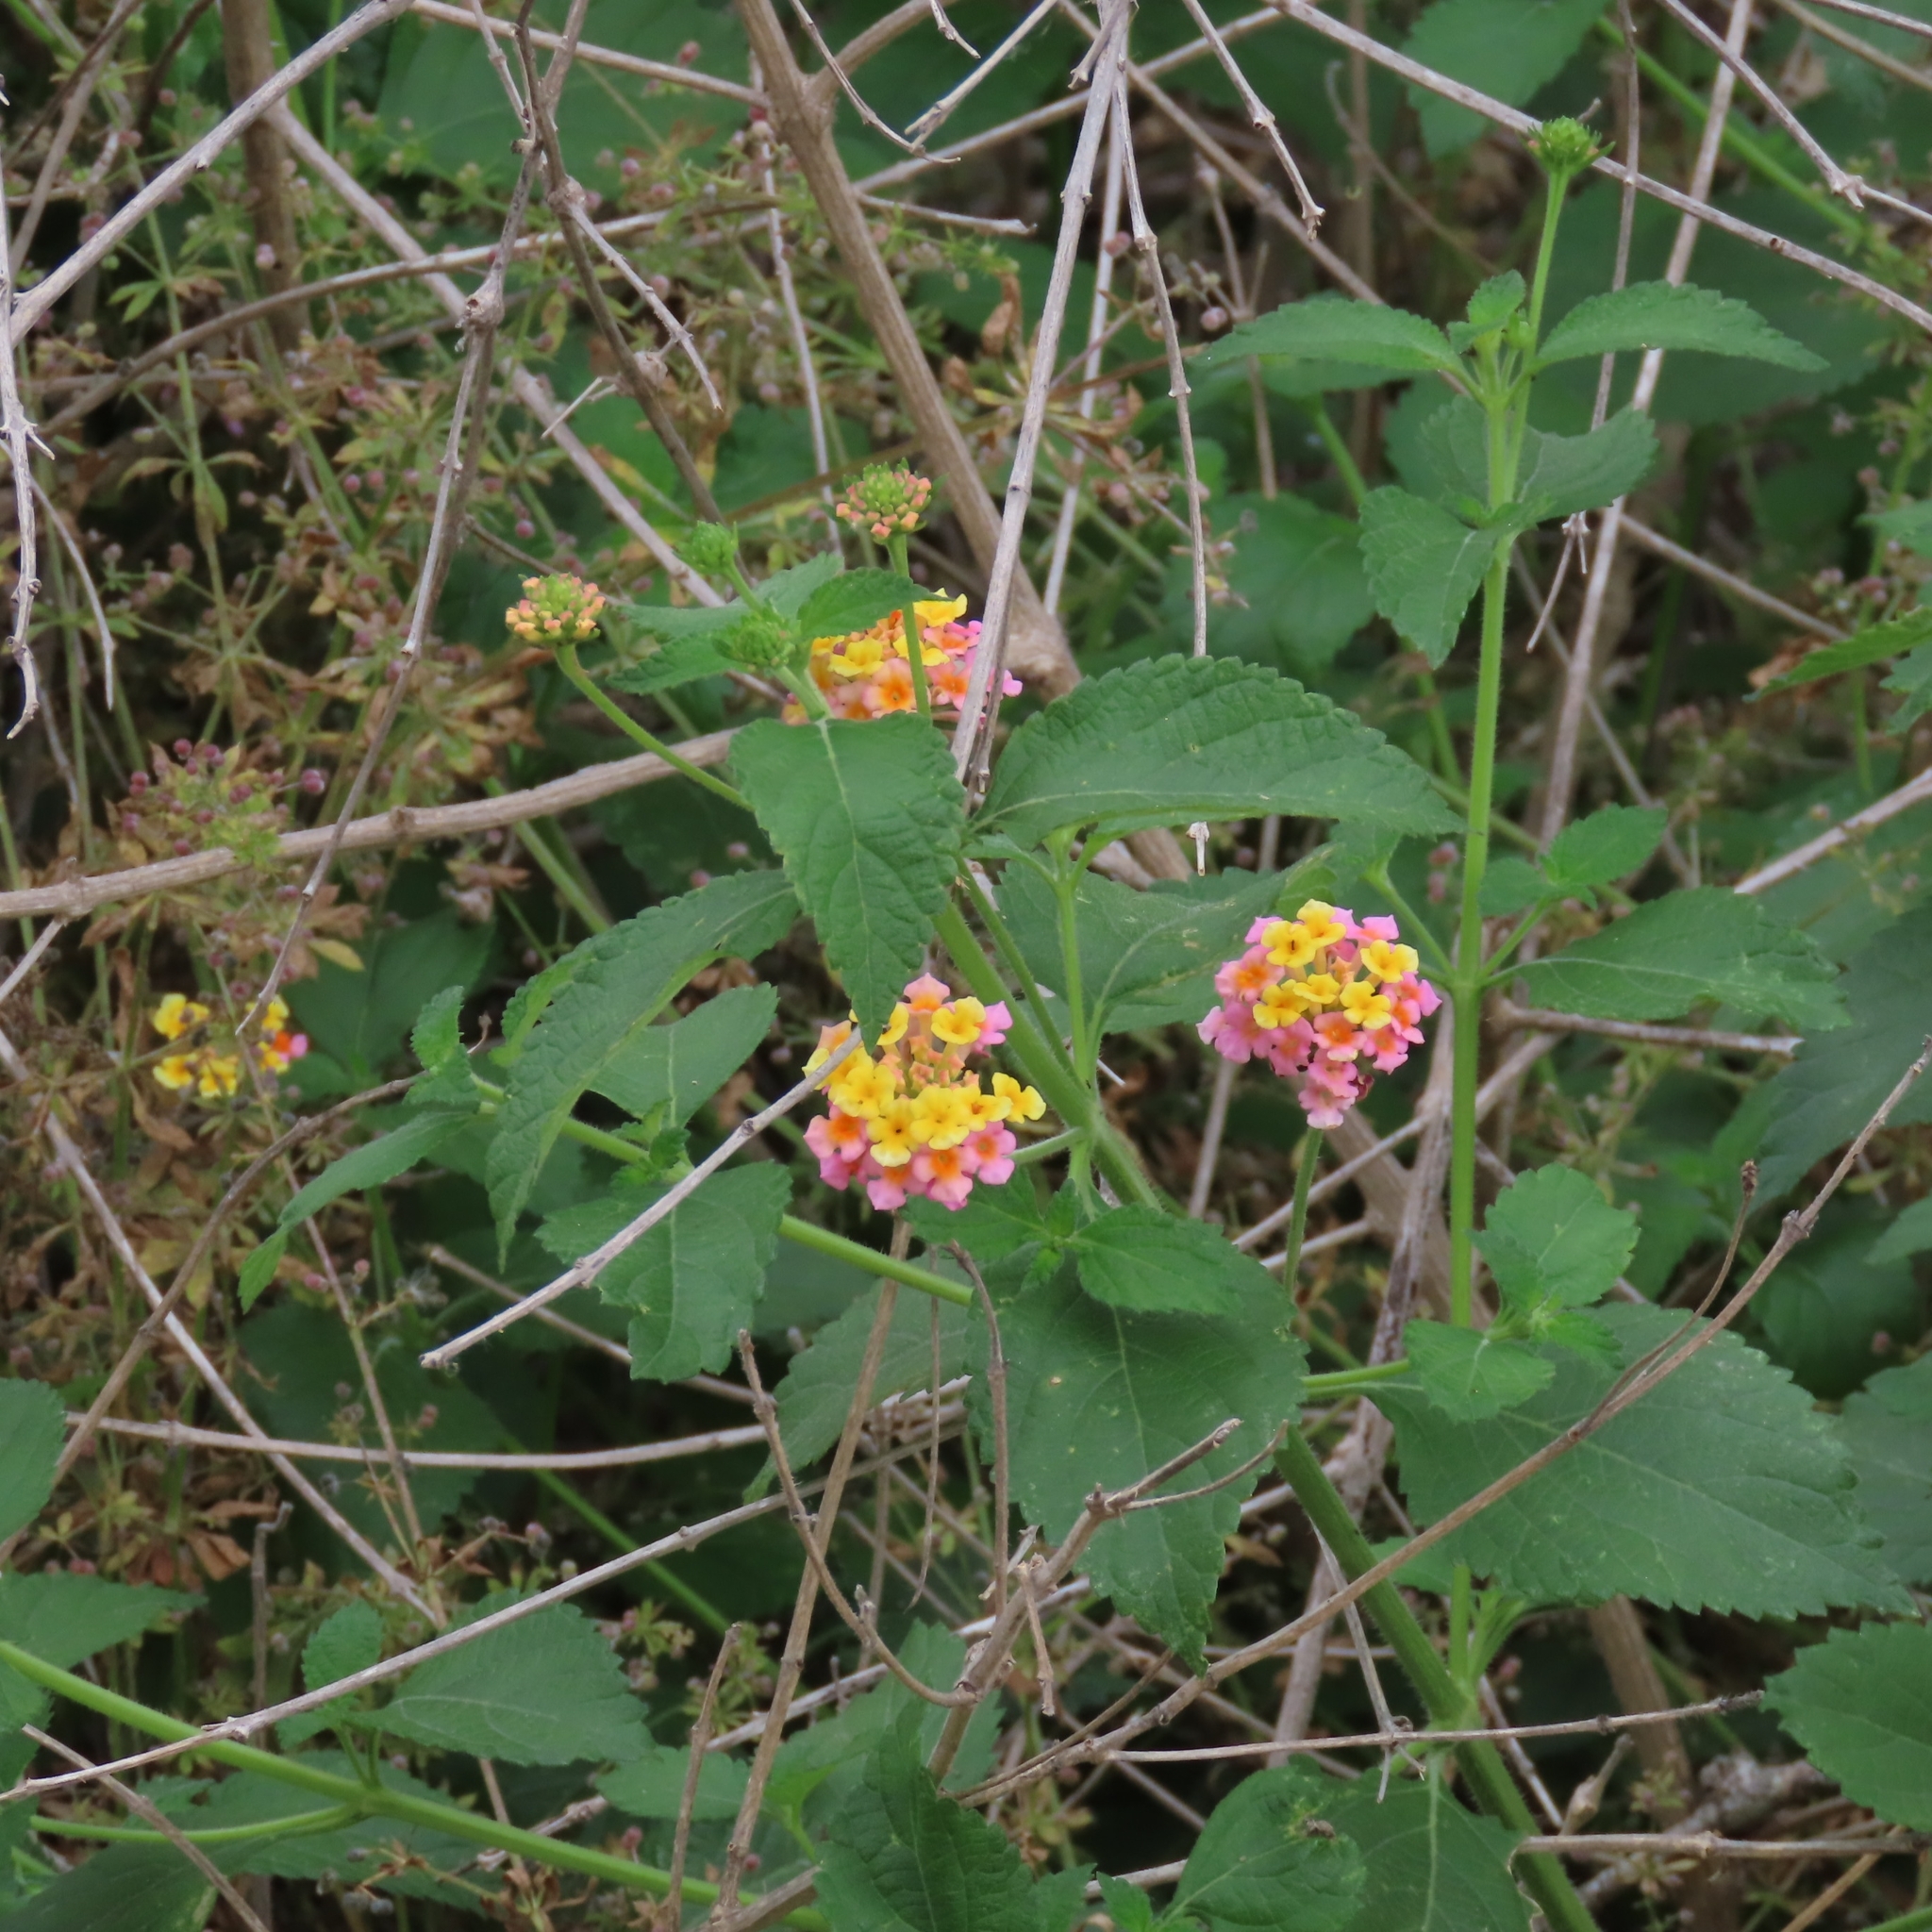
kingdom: Plantae
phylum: Tracheophyta
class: Magnoliopsida
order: Lamiales
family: Verbenaceae
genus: Lantana
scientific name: Lantana strigocamara
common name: Lantana
